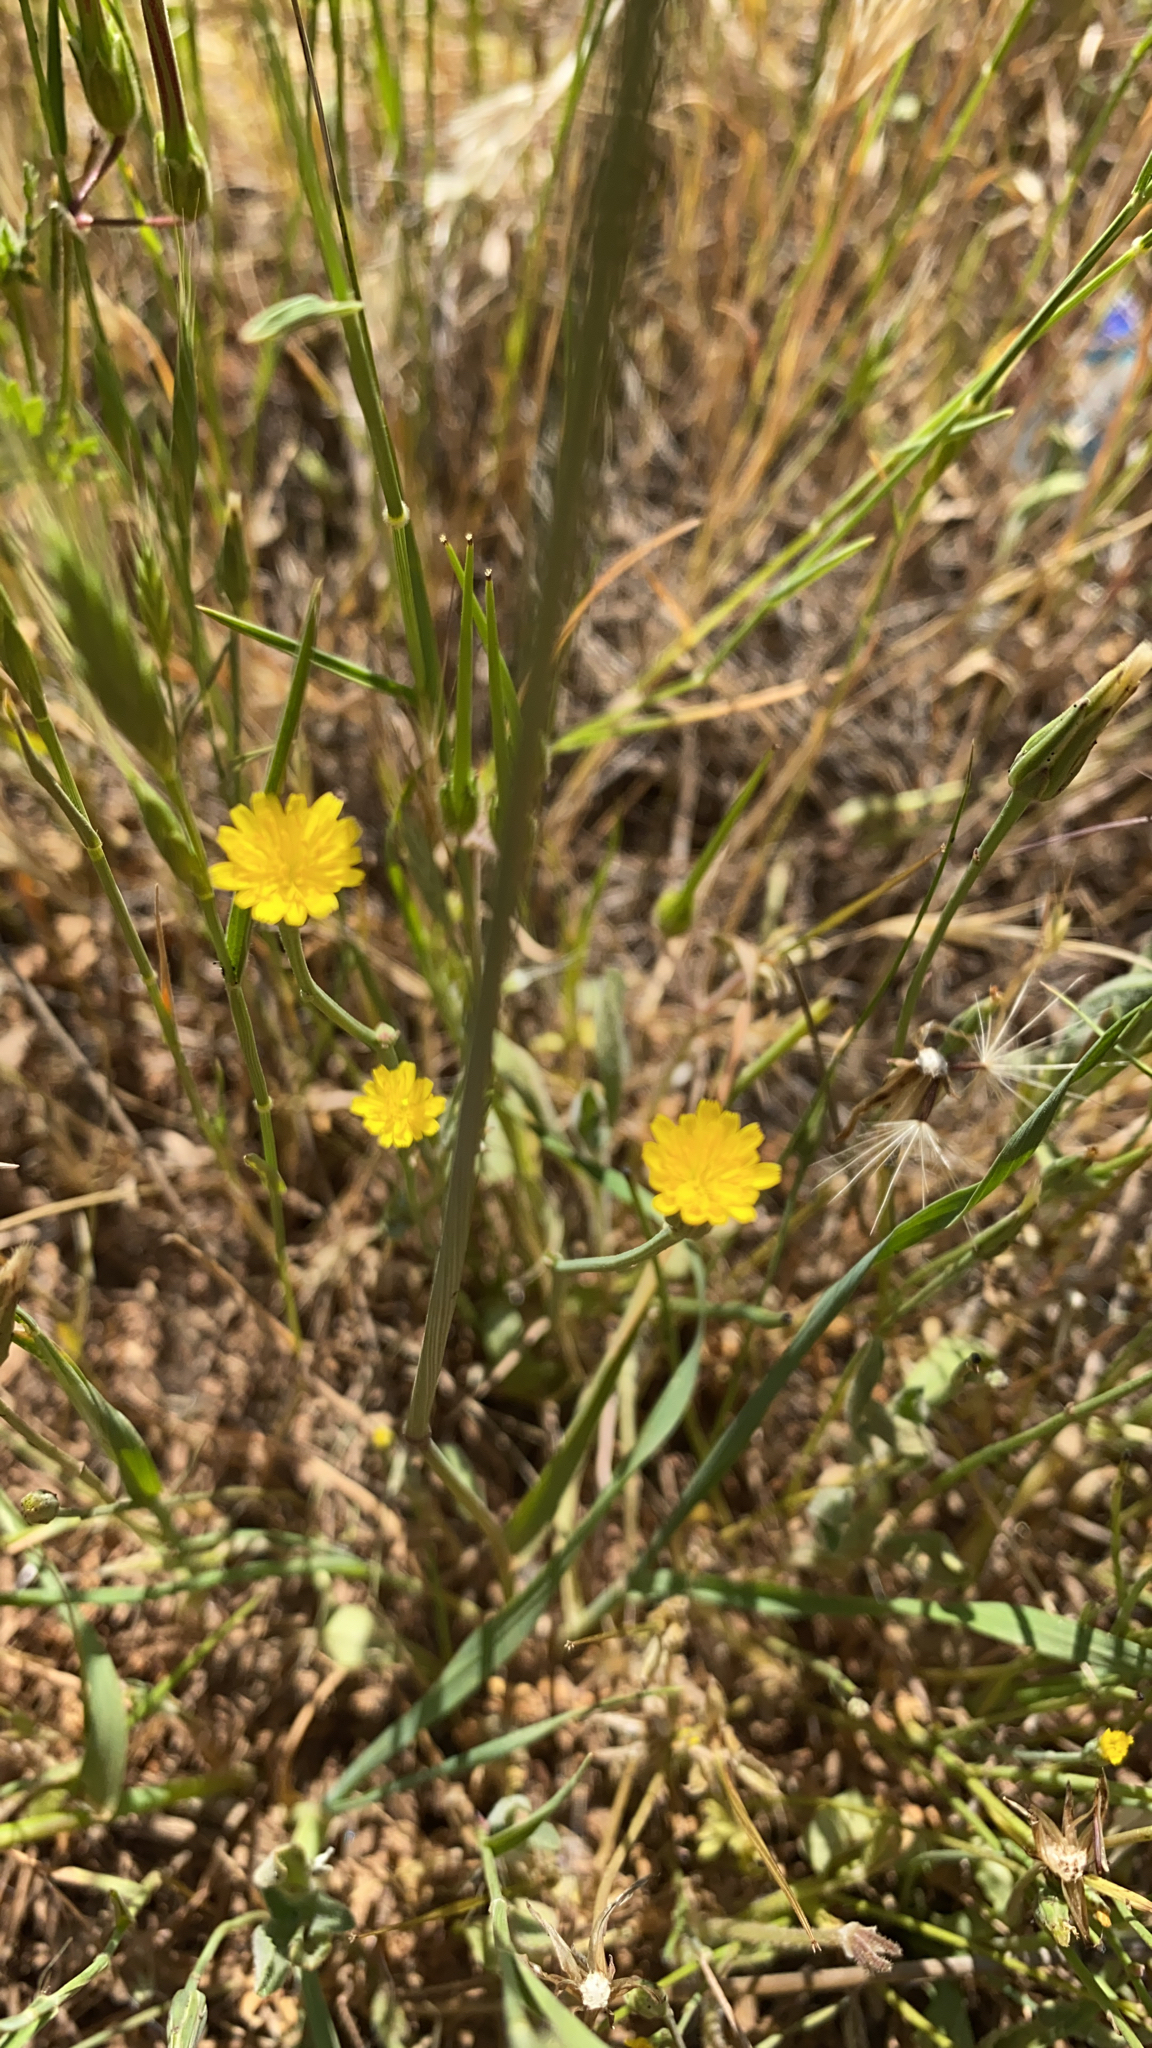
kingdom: Plantae
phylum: Tracheophyta
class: Magnoliopsida
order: Asterales
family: Asteraceae
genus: Hypochaeris
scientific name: Hypochaeris glabra
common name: Smooth catsear
